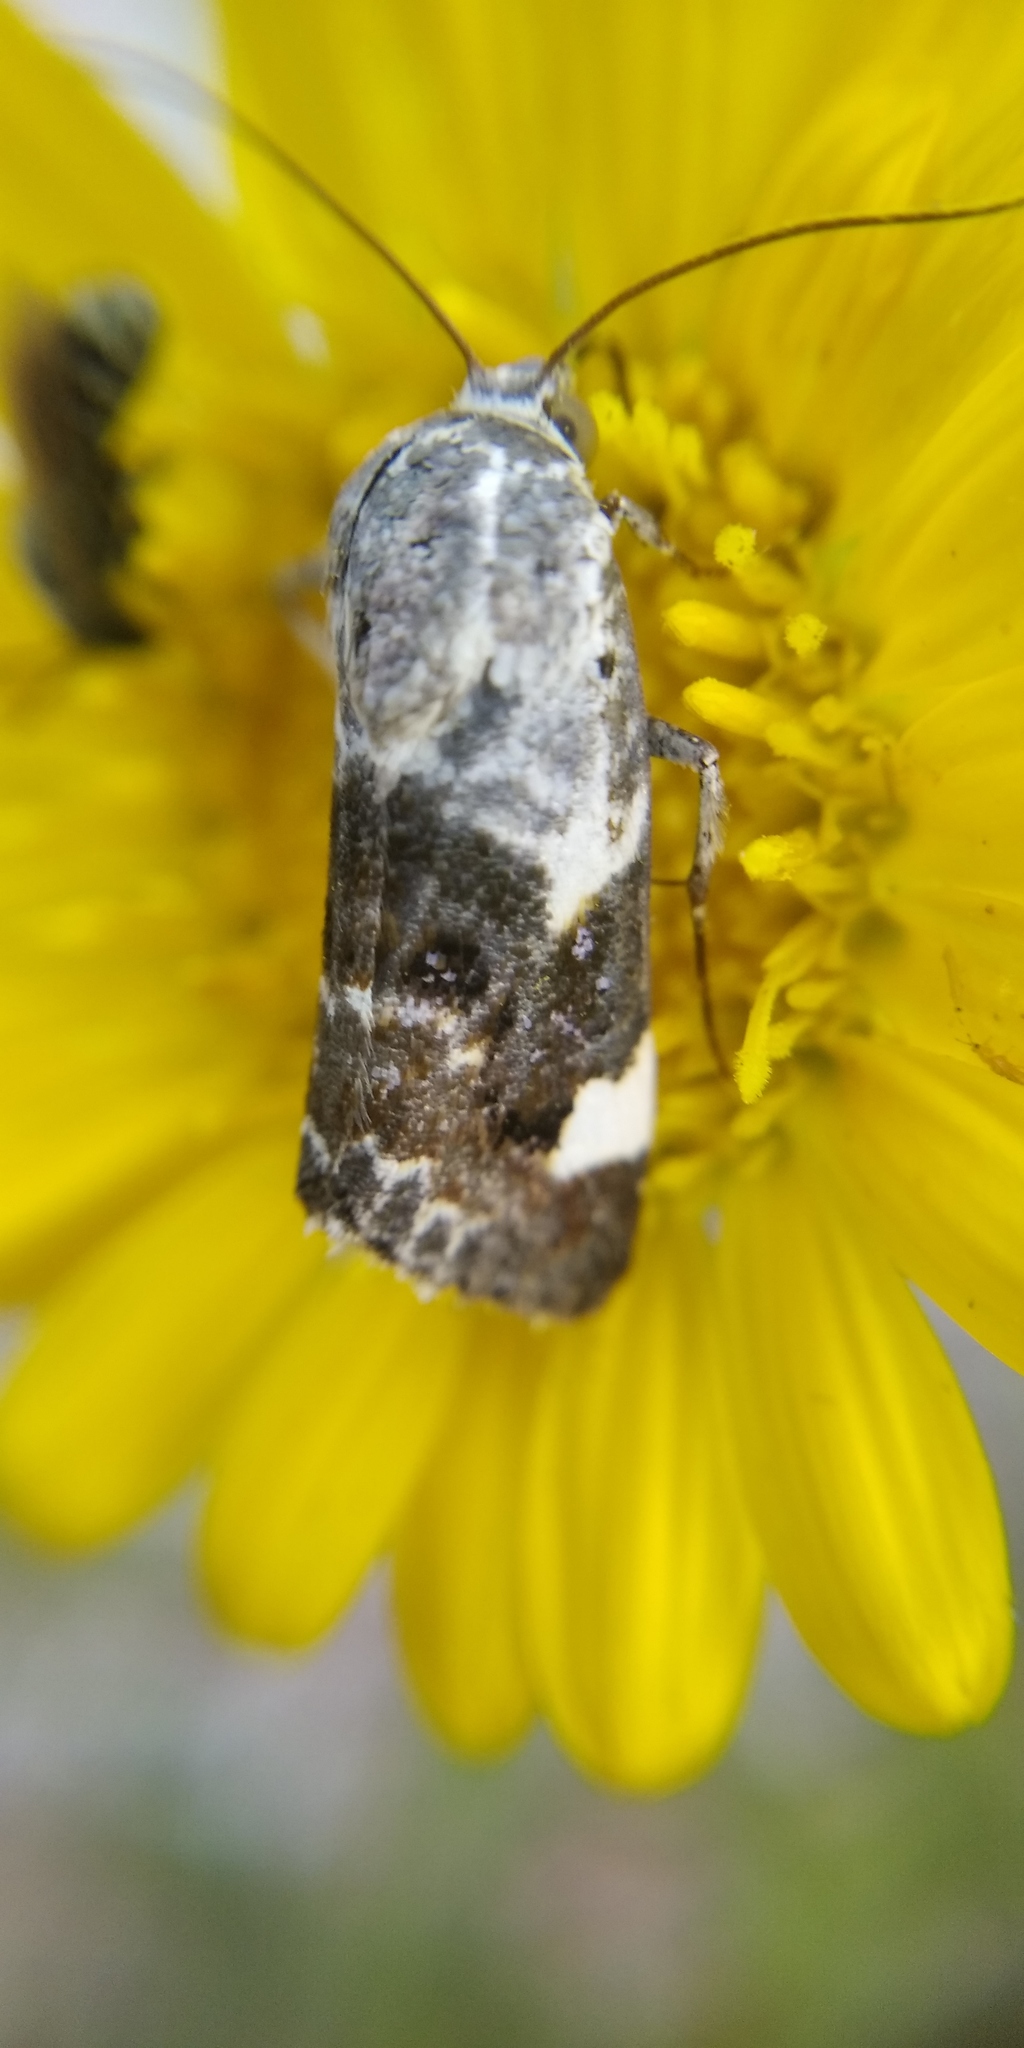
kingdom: Animalia
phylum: Arthropoda
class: Insecta
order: Lepidoptera
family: Noctuidae
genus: Acontia
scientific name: Acontia lucida
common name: Pale shoulder
